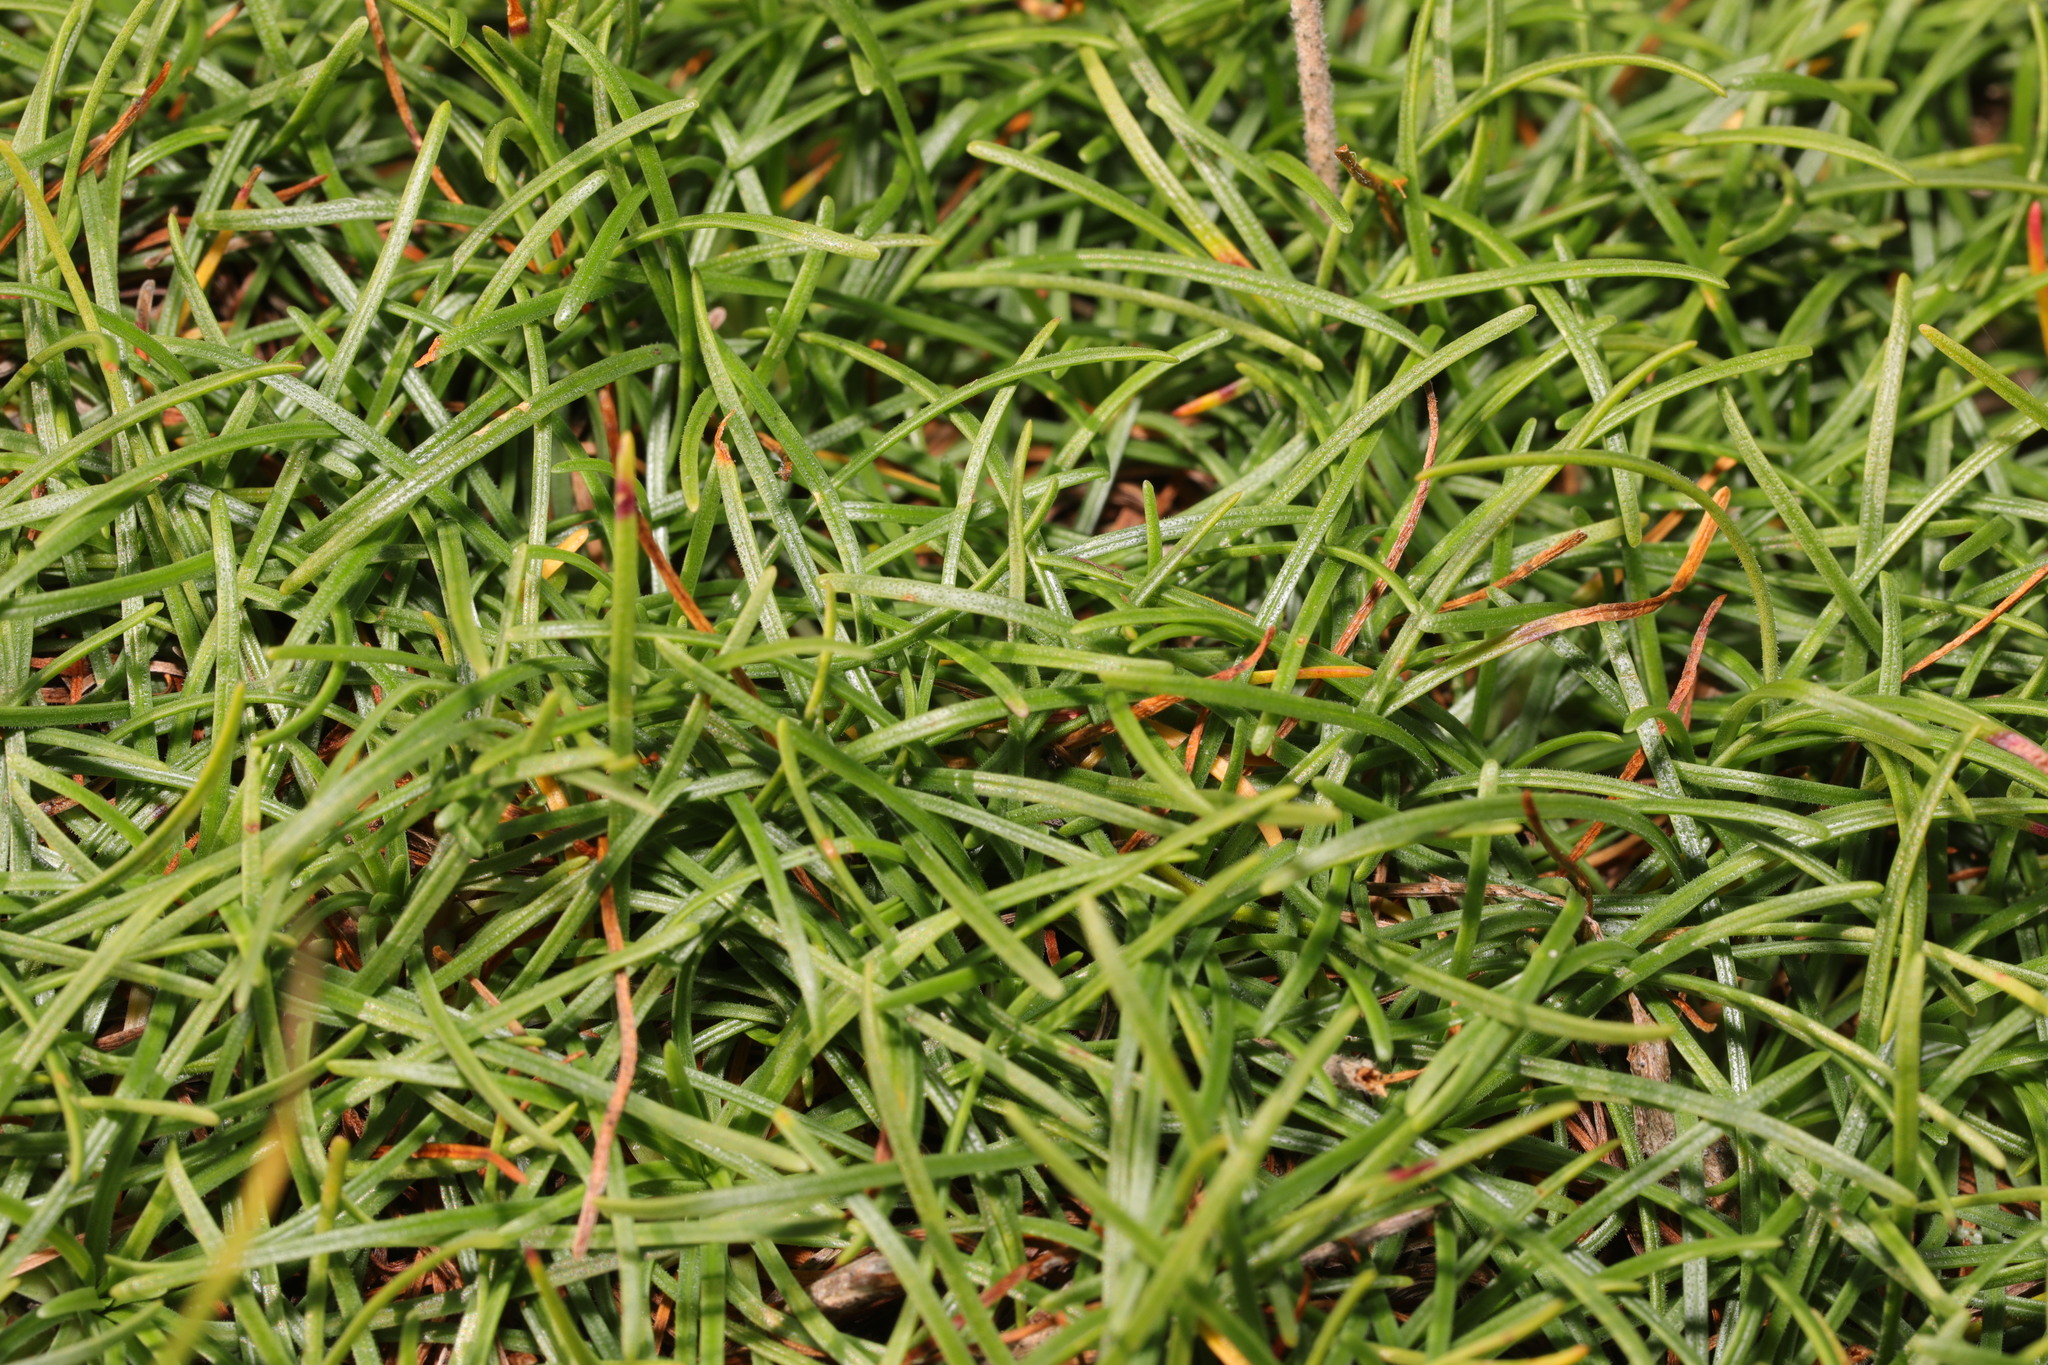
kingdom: Plantae
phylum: Tracheophyta
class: Magnoliopsida
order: Caryophyllales
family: Plumbaginaceae
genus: Armeria
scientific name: Armeria maritima
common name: Thrift
